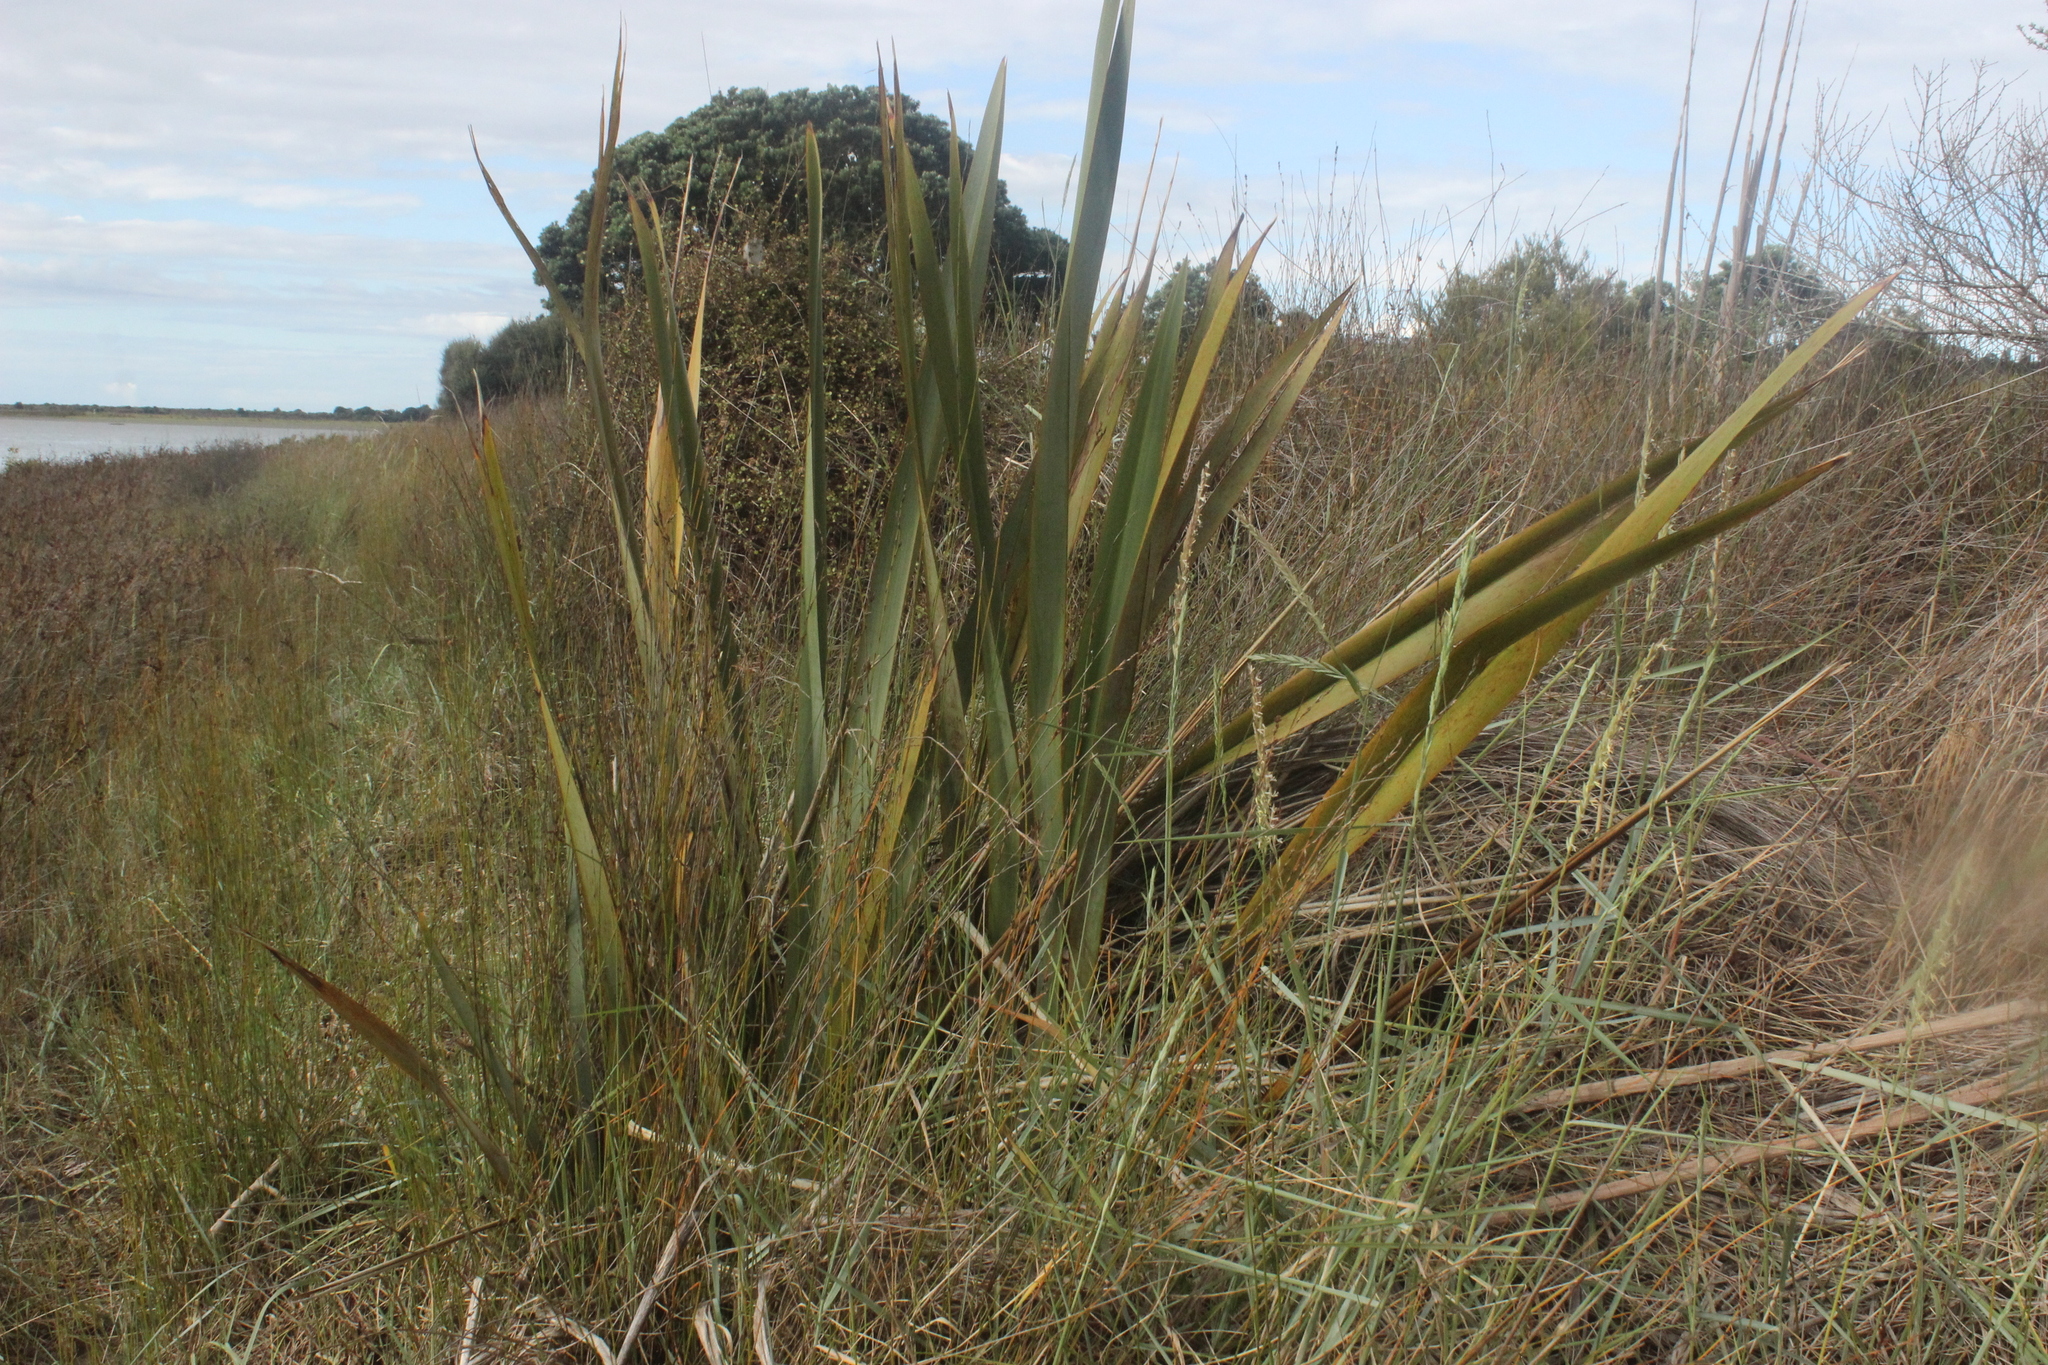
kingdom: Plantae
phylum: Tracheophyta
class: Liliopsida
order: Asparagales
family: Asphodelaceae
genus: Phormium
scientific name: Phormium tenax
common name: New zealand flax
